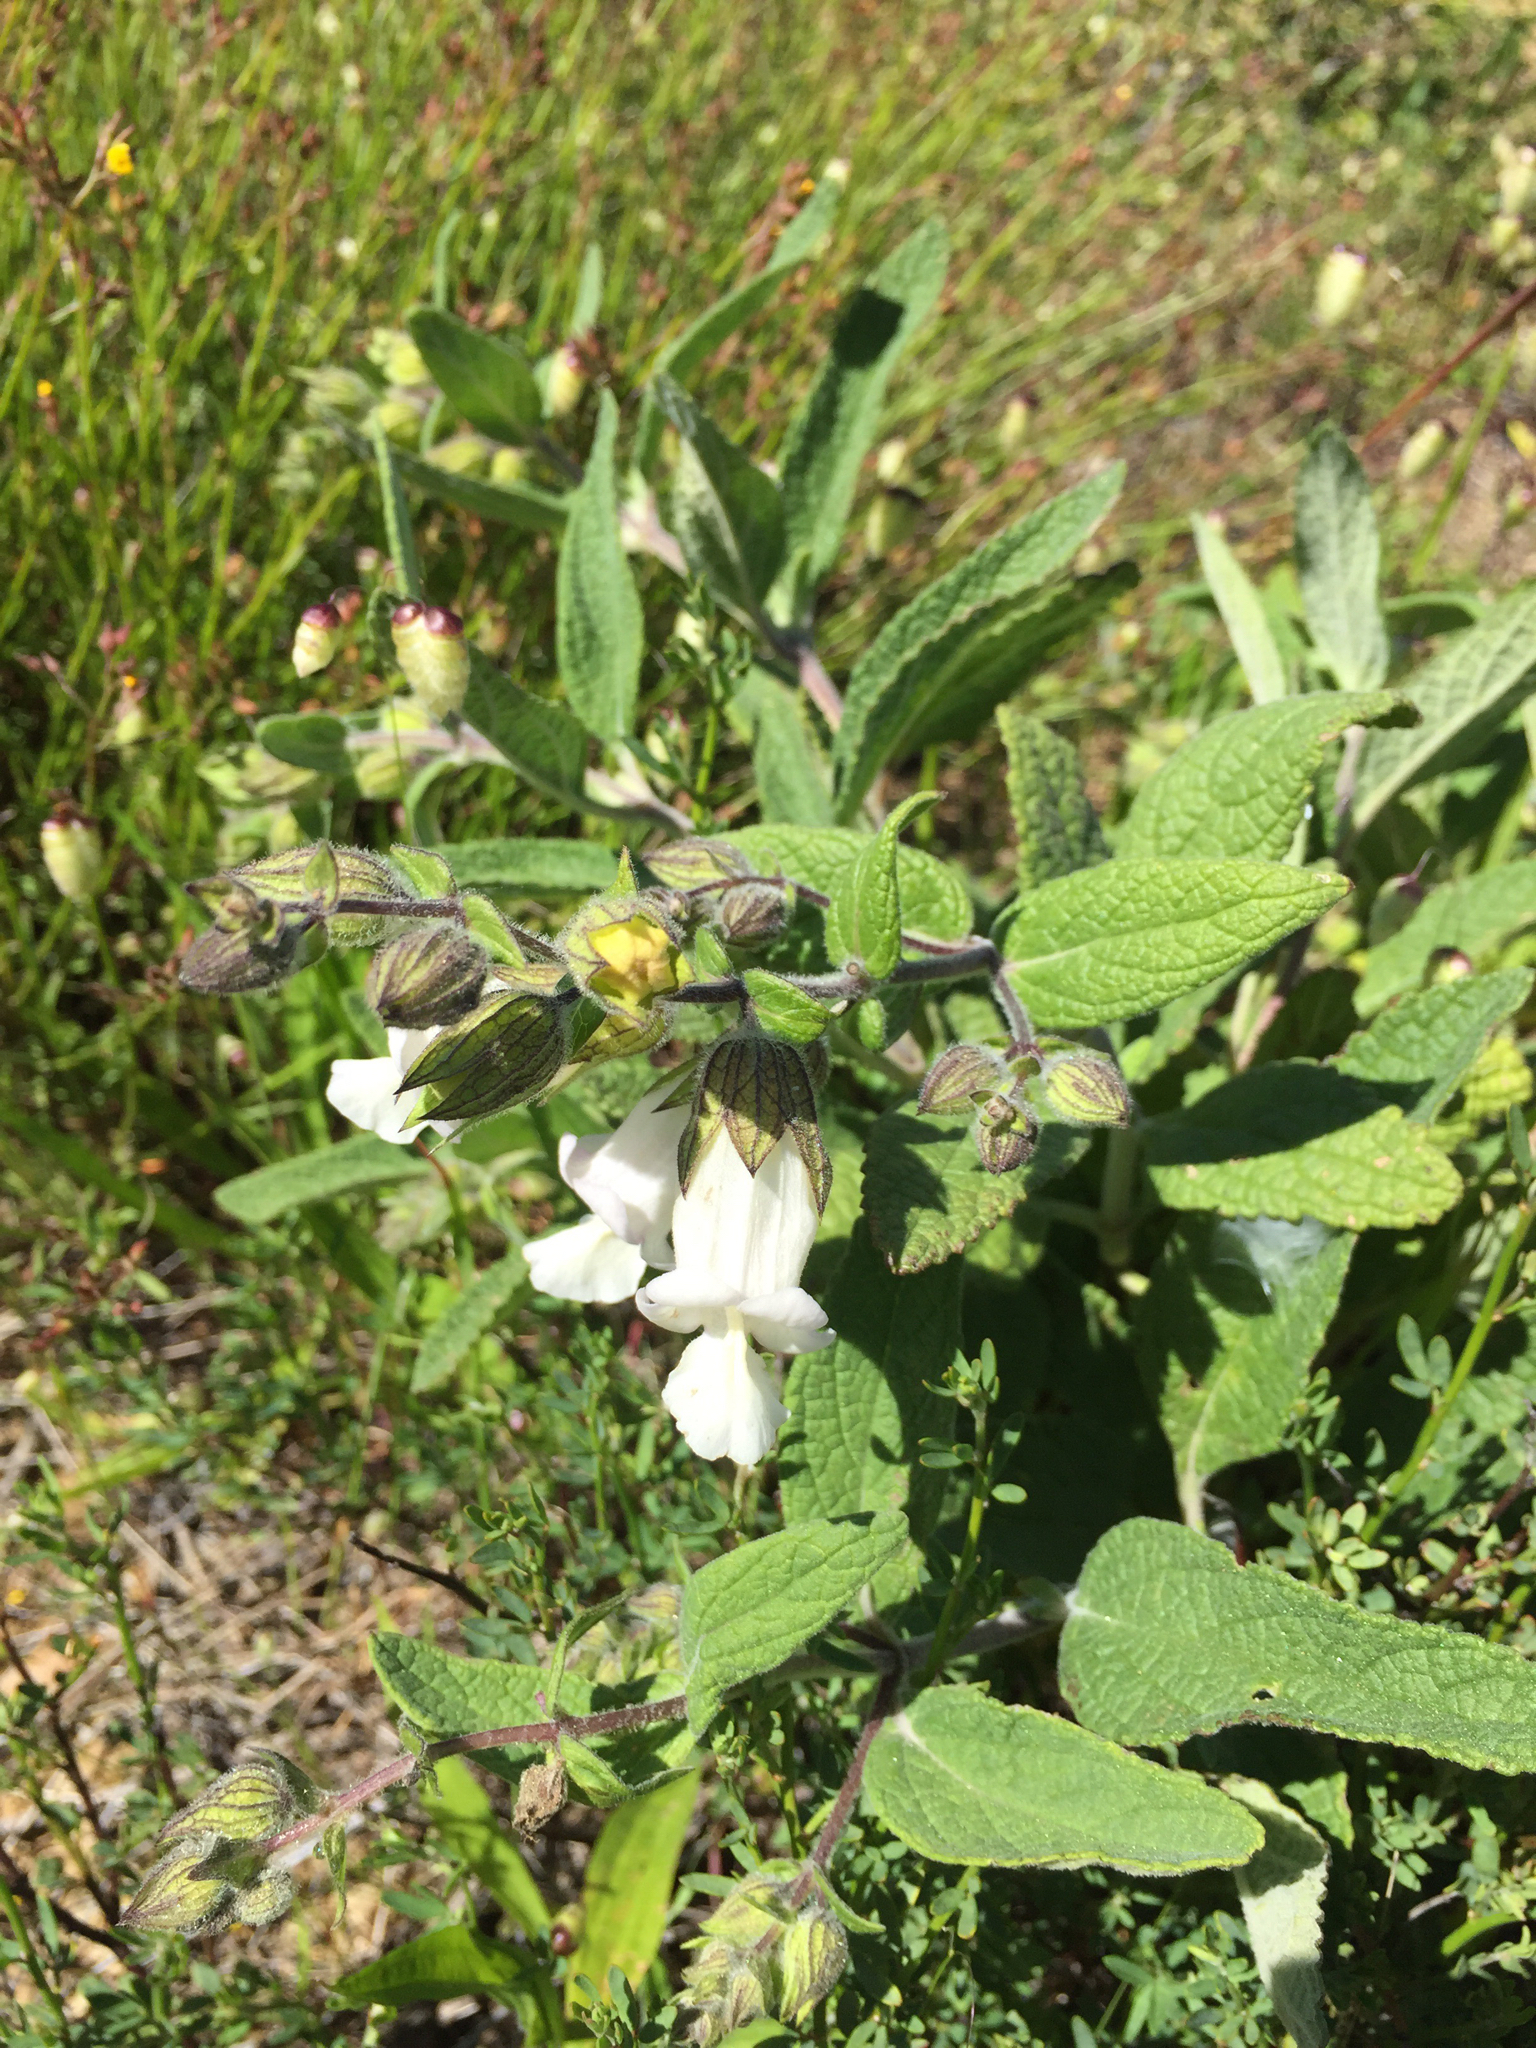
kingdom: Plantae
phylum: Tracheophyta
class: Magnoliopsida
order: Lamiales
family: Lamiaceae
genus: Lepechinia
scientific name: Lepechinia calycina
